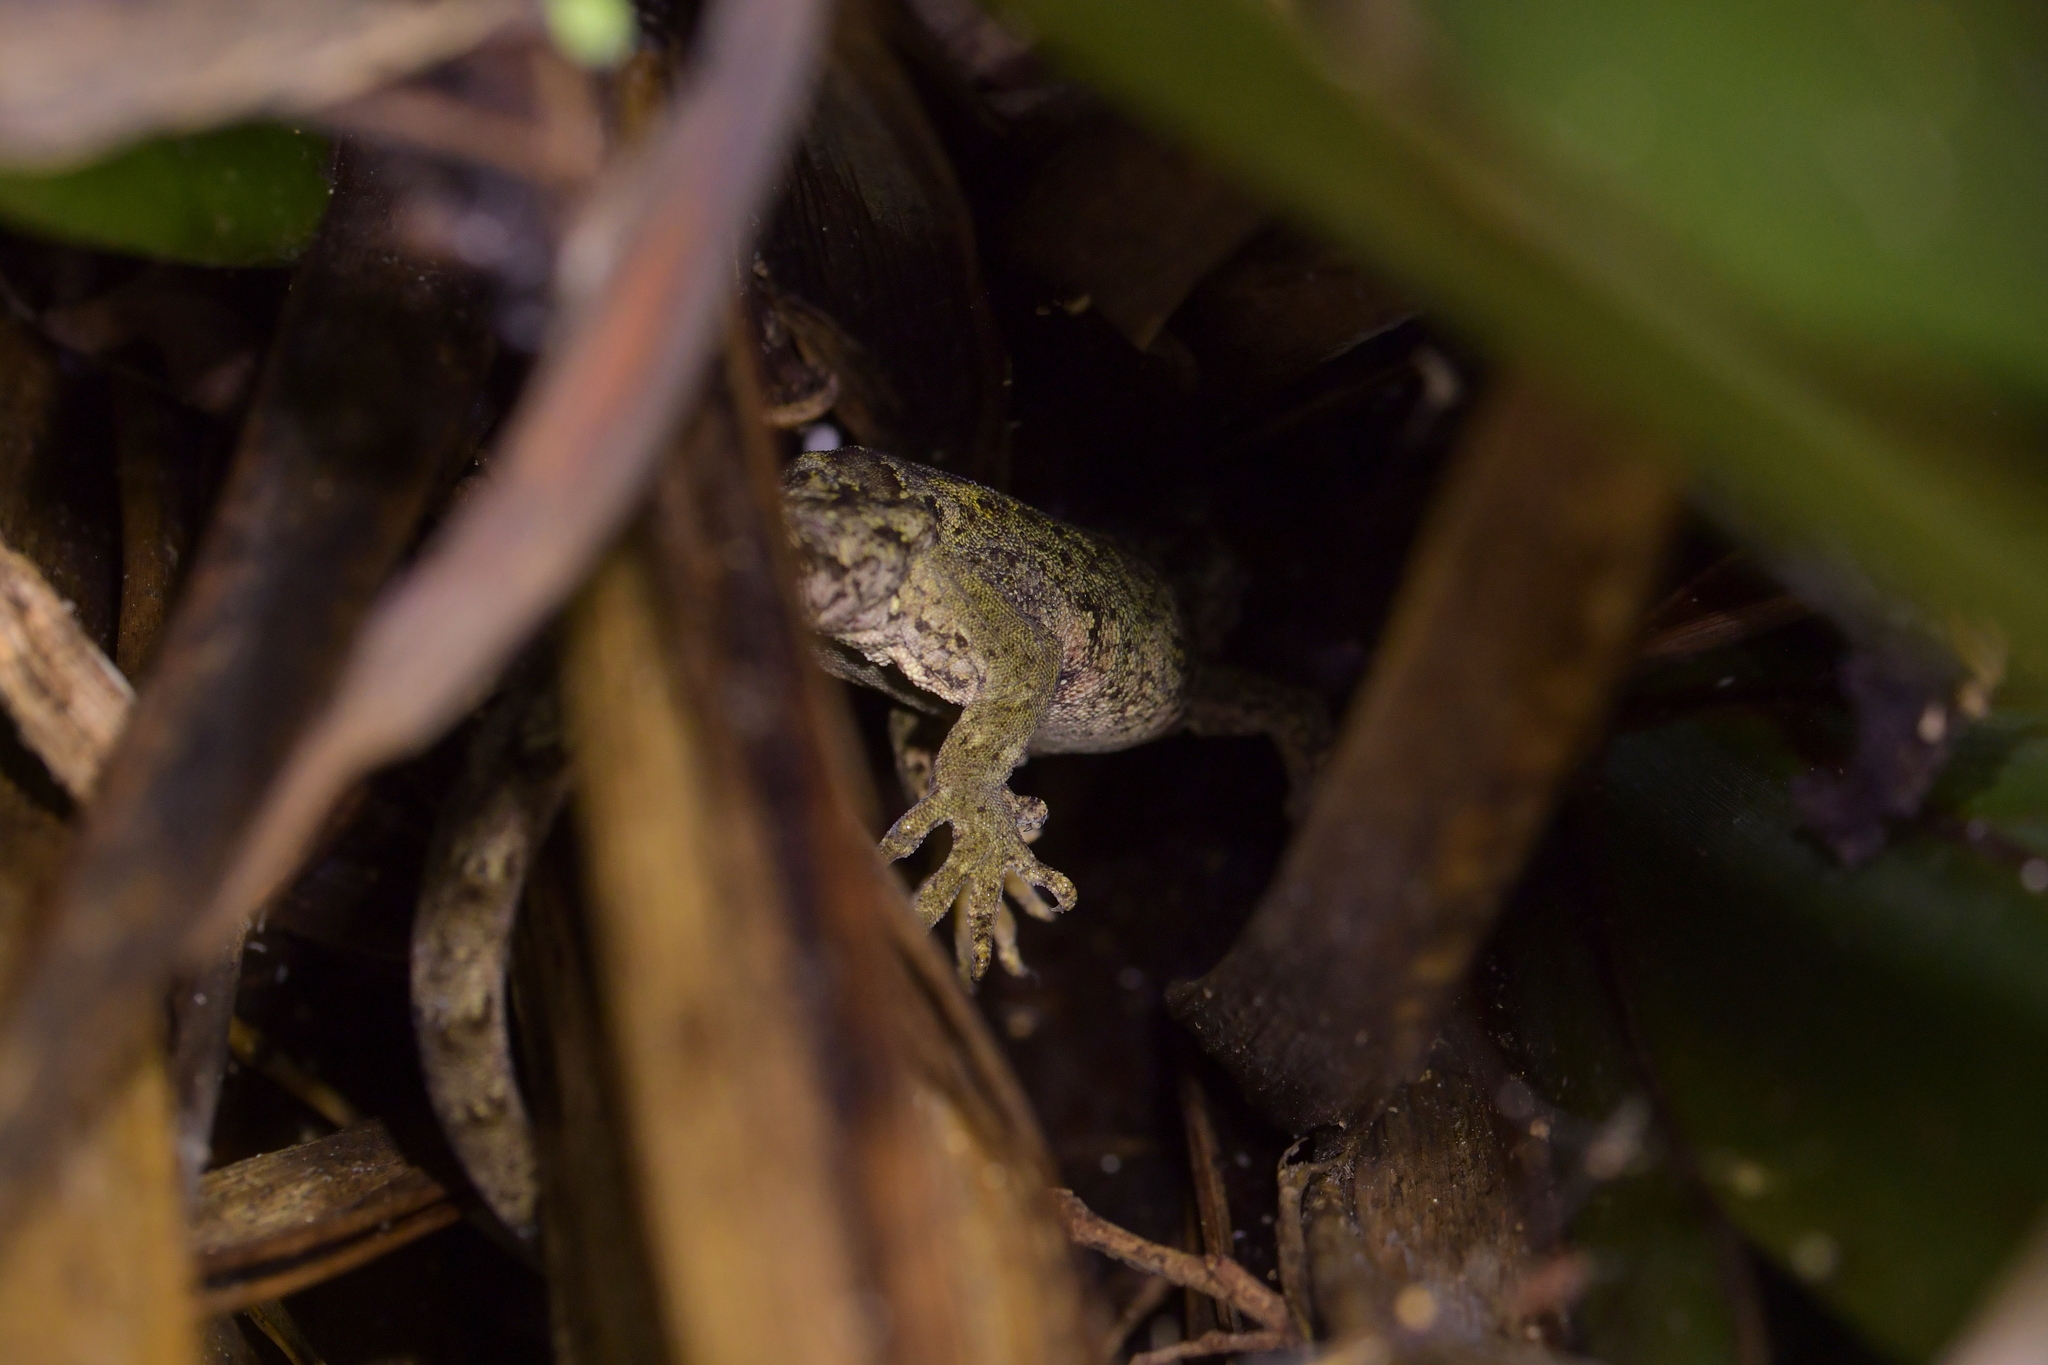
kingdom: Animalia
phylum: Chordata
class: Squamata
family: Diplodactylidae
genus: Mokopirirakau
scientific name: Mokopirirakau
